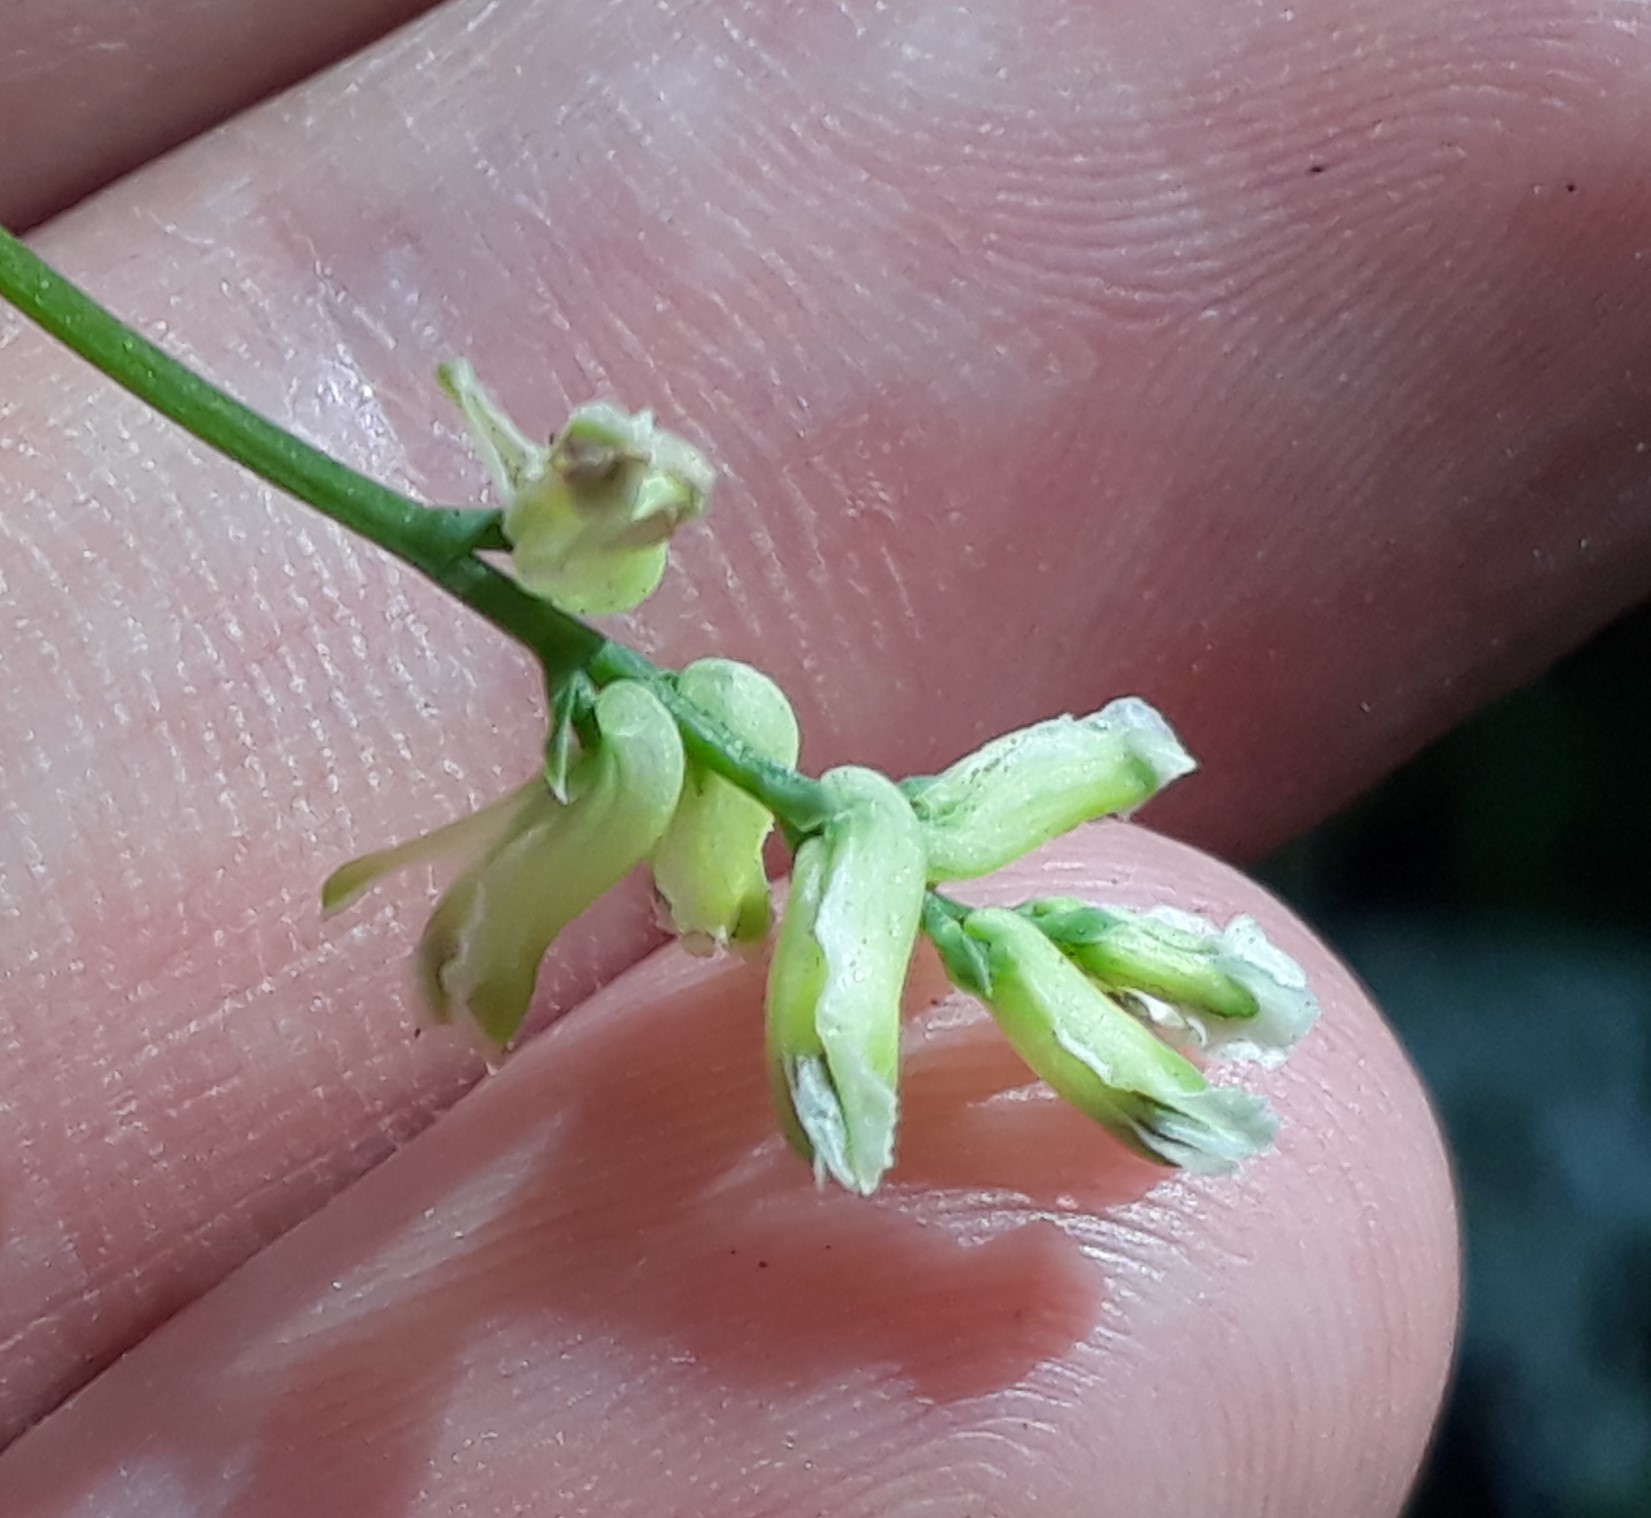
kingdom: Plantae
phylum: Tracheophyta
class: Magnoliopsida
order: Ranunculales
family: Papaveraceae
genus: Ceratocapnos
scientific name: Ceratocapnos claviculata
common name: Climbing corydalis
